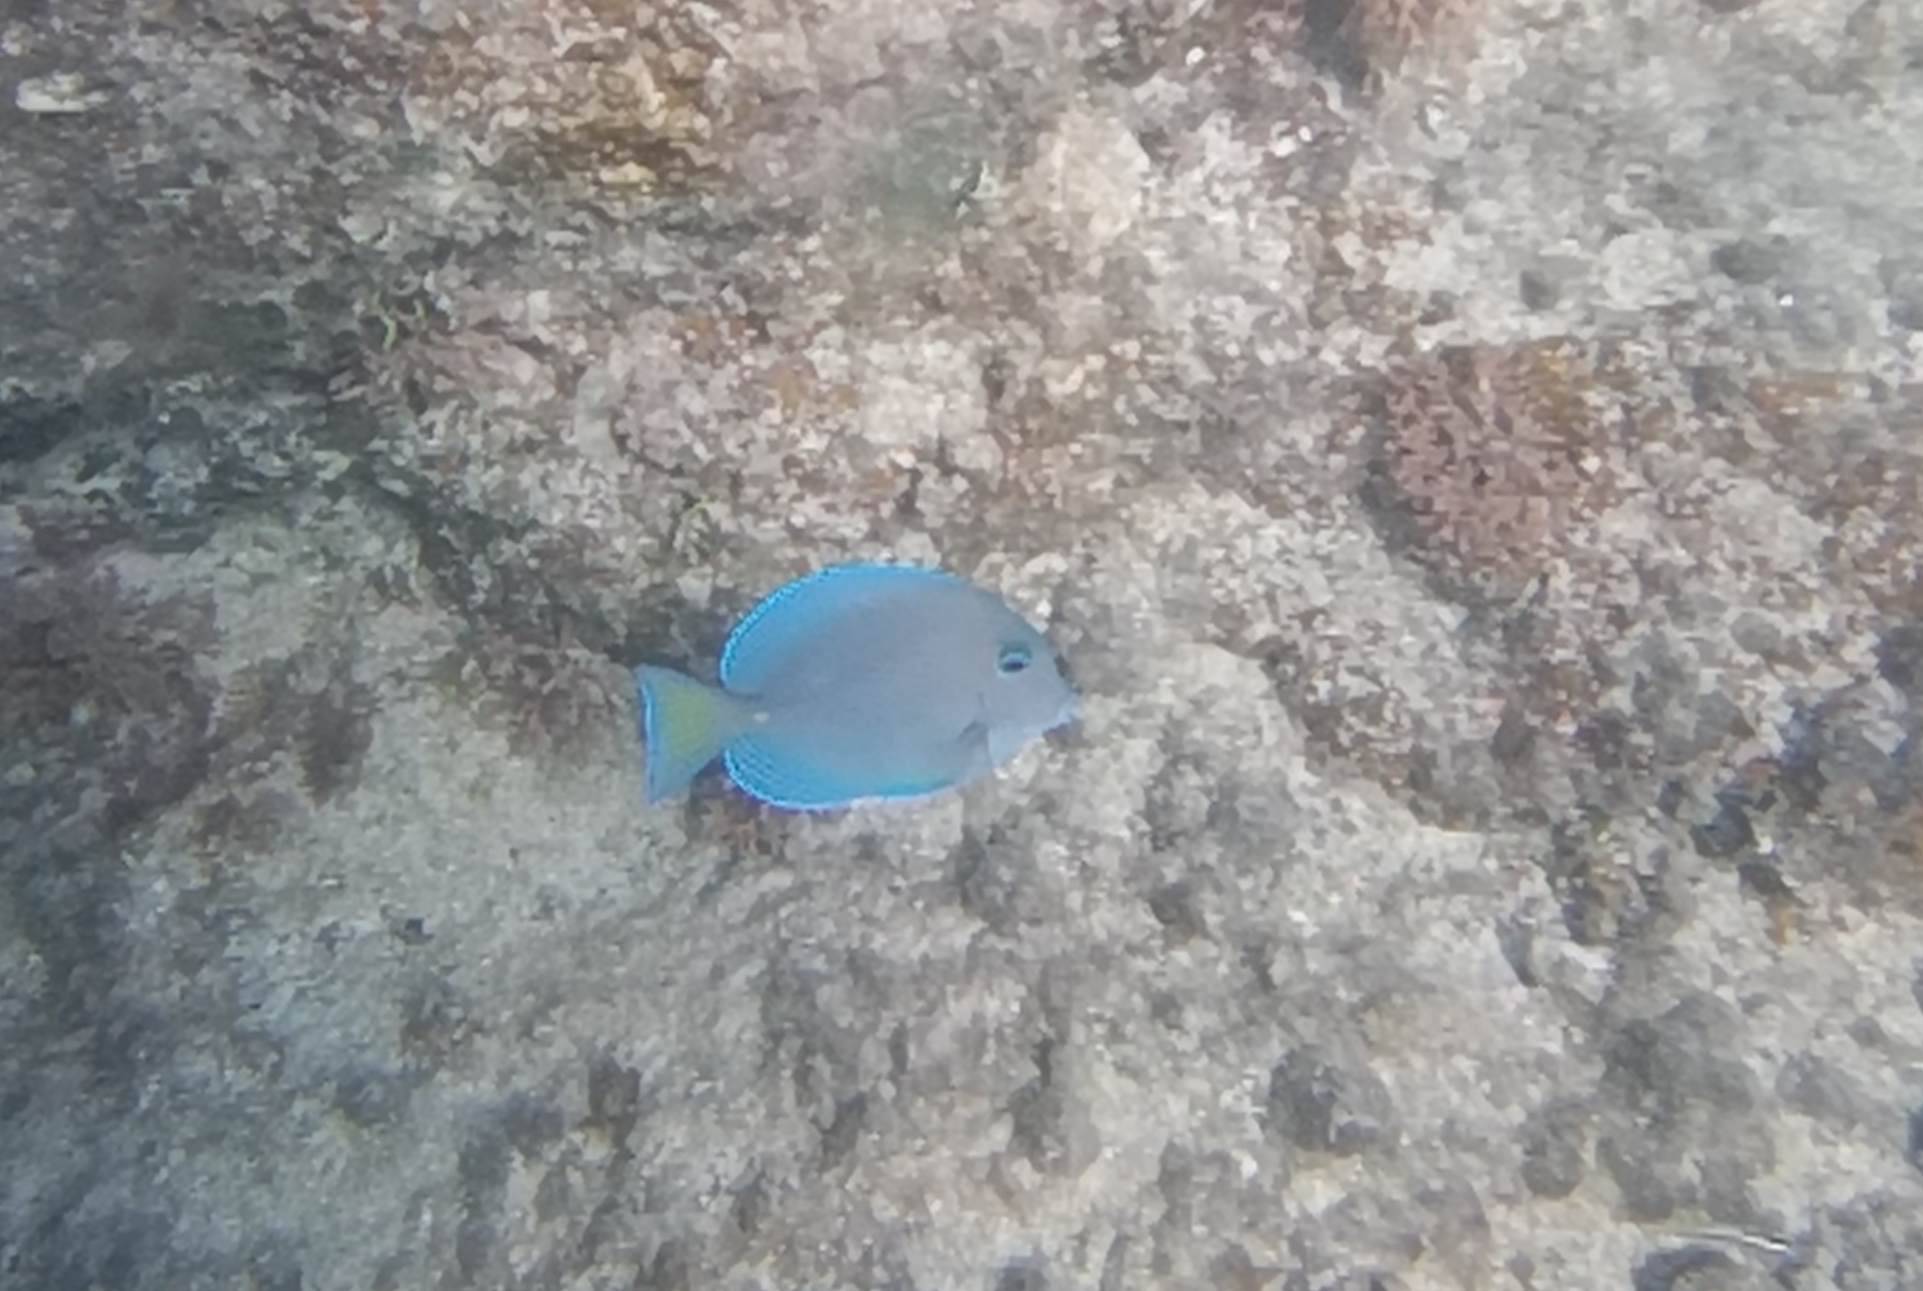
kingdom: Animalia
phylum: Chordata
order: Perciformes
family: Acanthuridae
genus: Acanthurus
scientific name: Acanthurus coeruleus
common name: Blue tang
